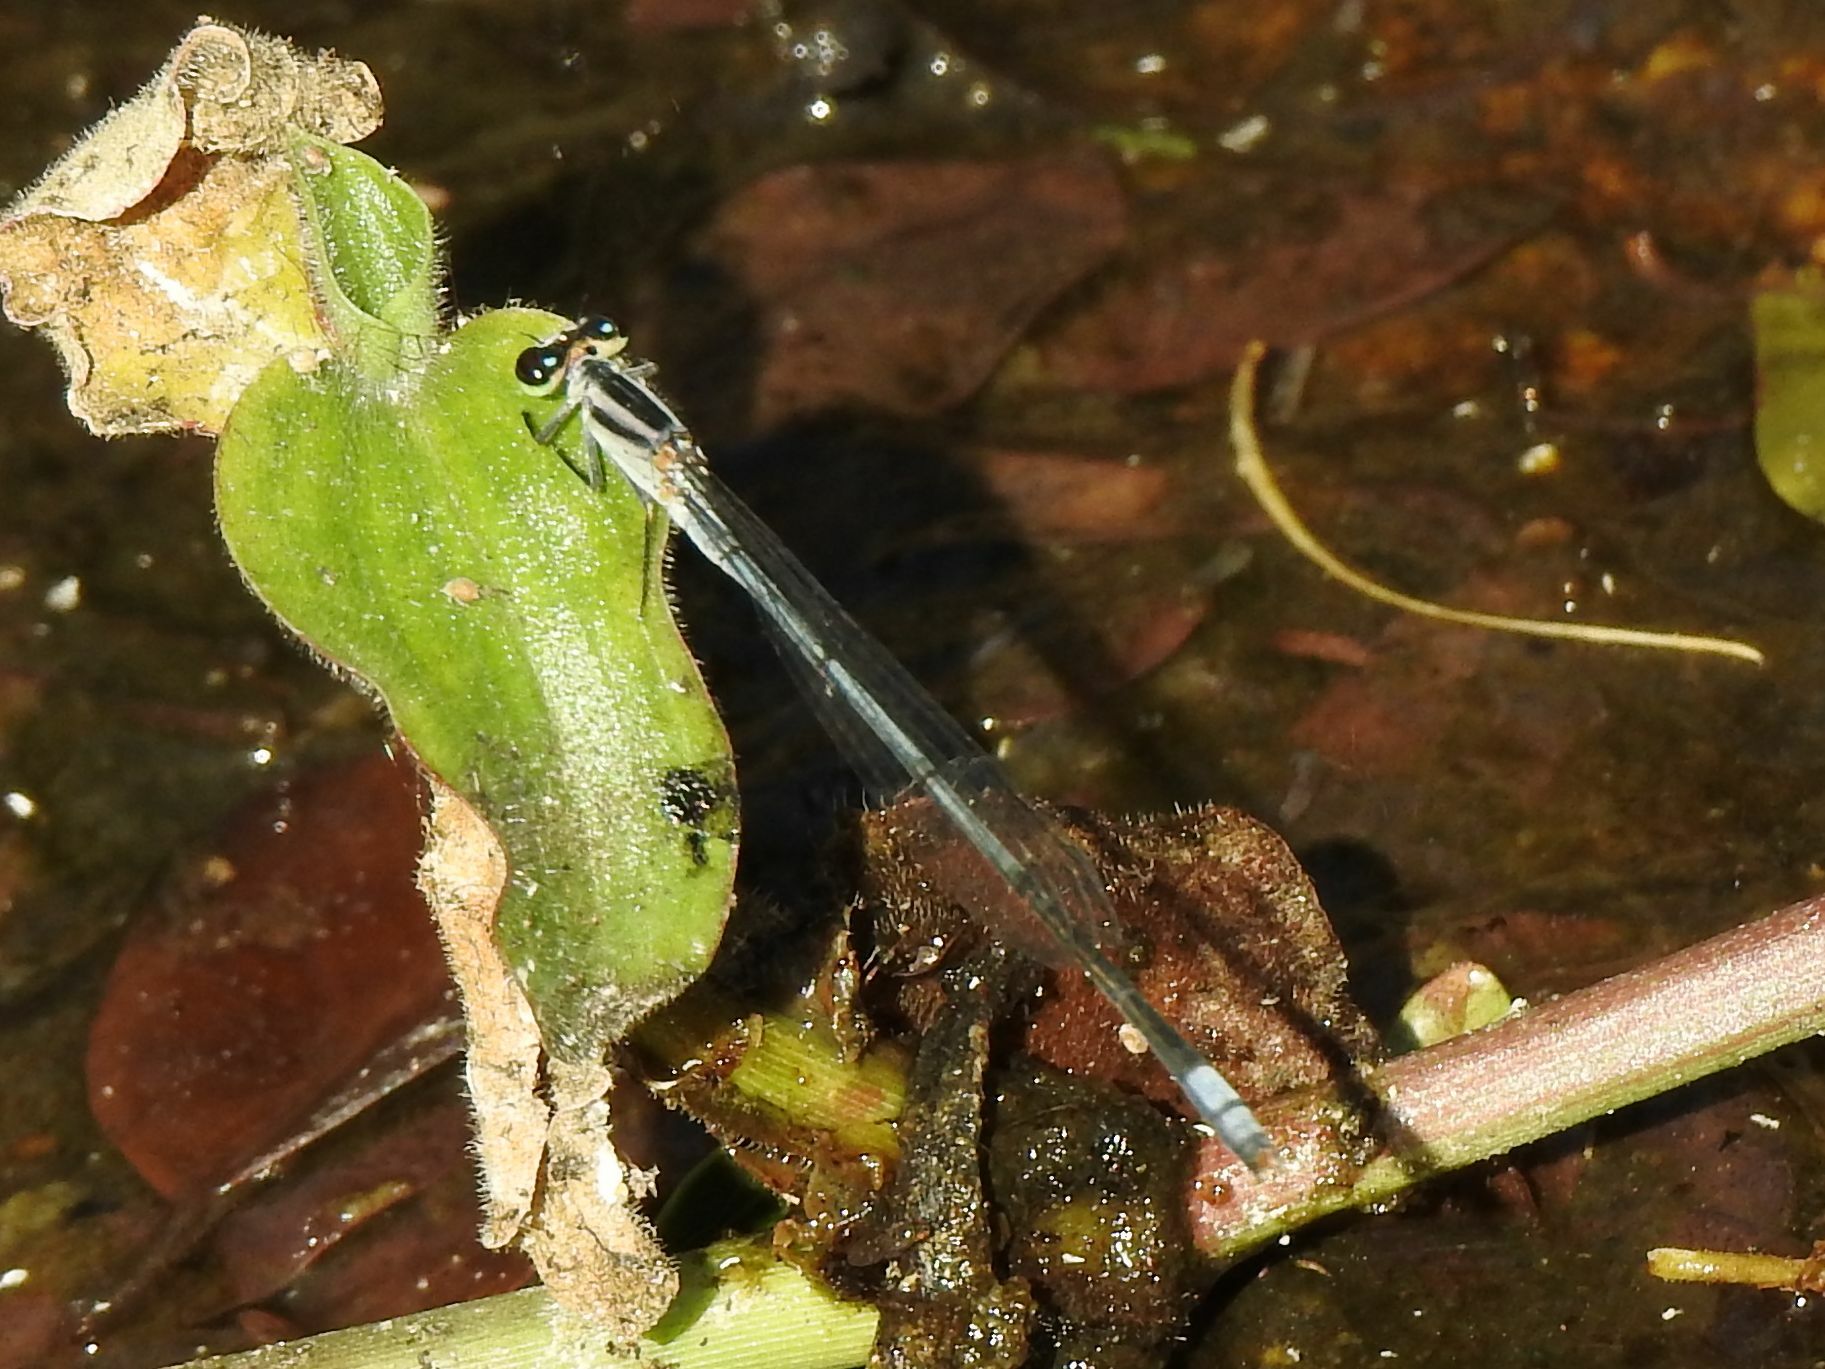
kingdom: Animalia
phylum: Arthropoda
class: Insecta
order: Odonata
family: Coenagrionidae
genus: Pseudagrion
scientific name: Pseudagrion kersteni
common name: Powder-faced sprite
